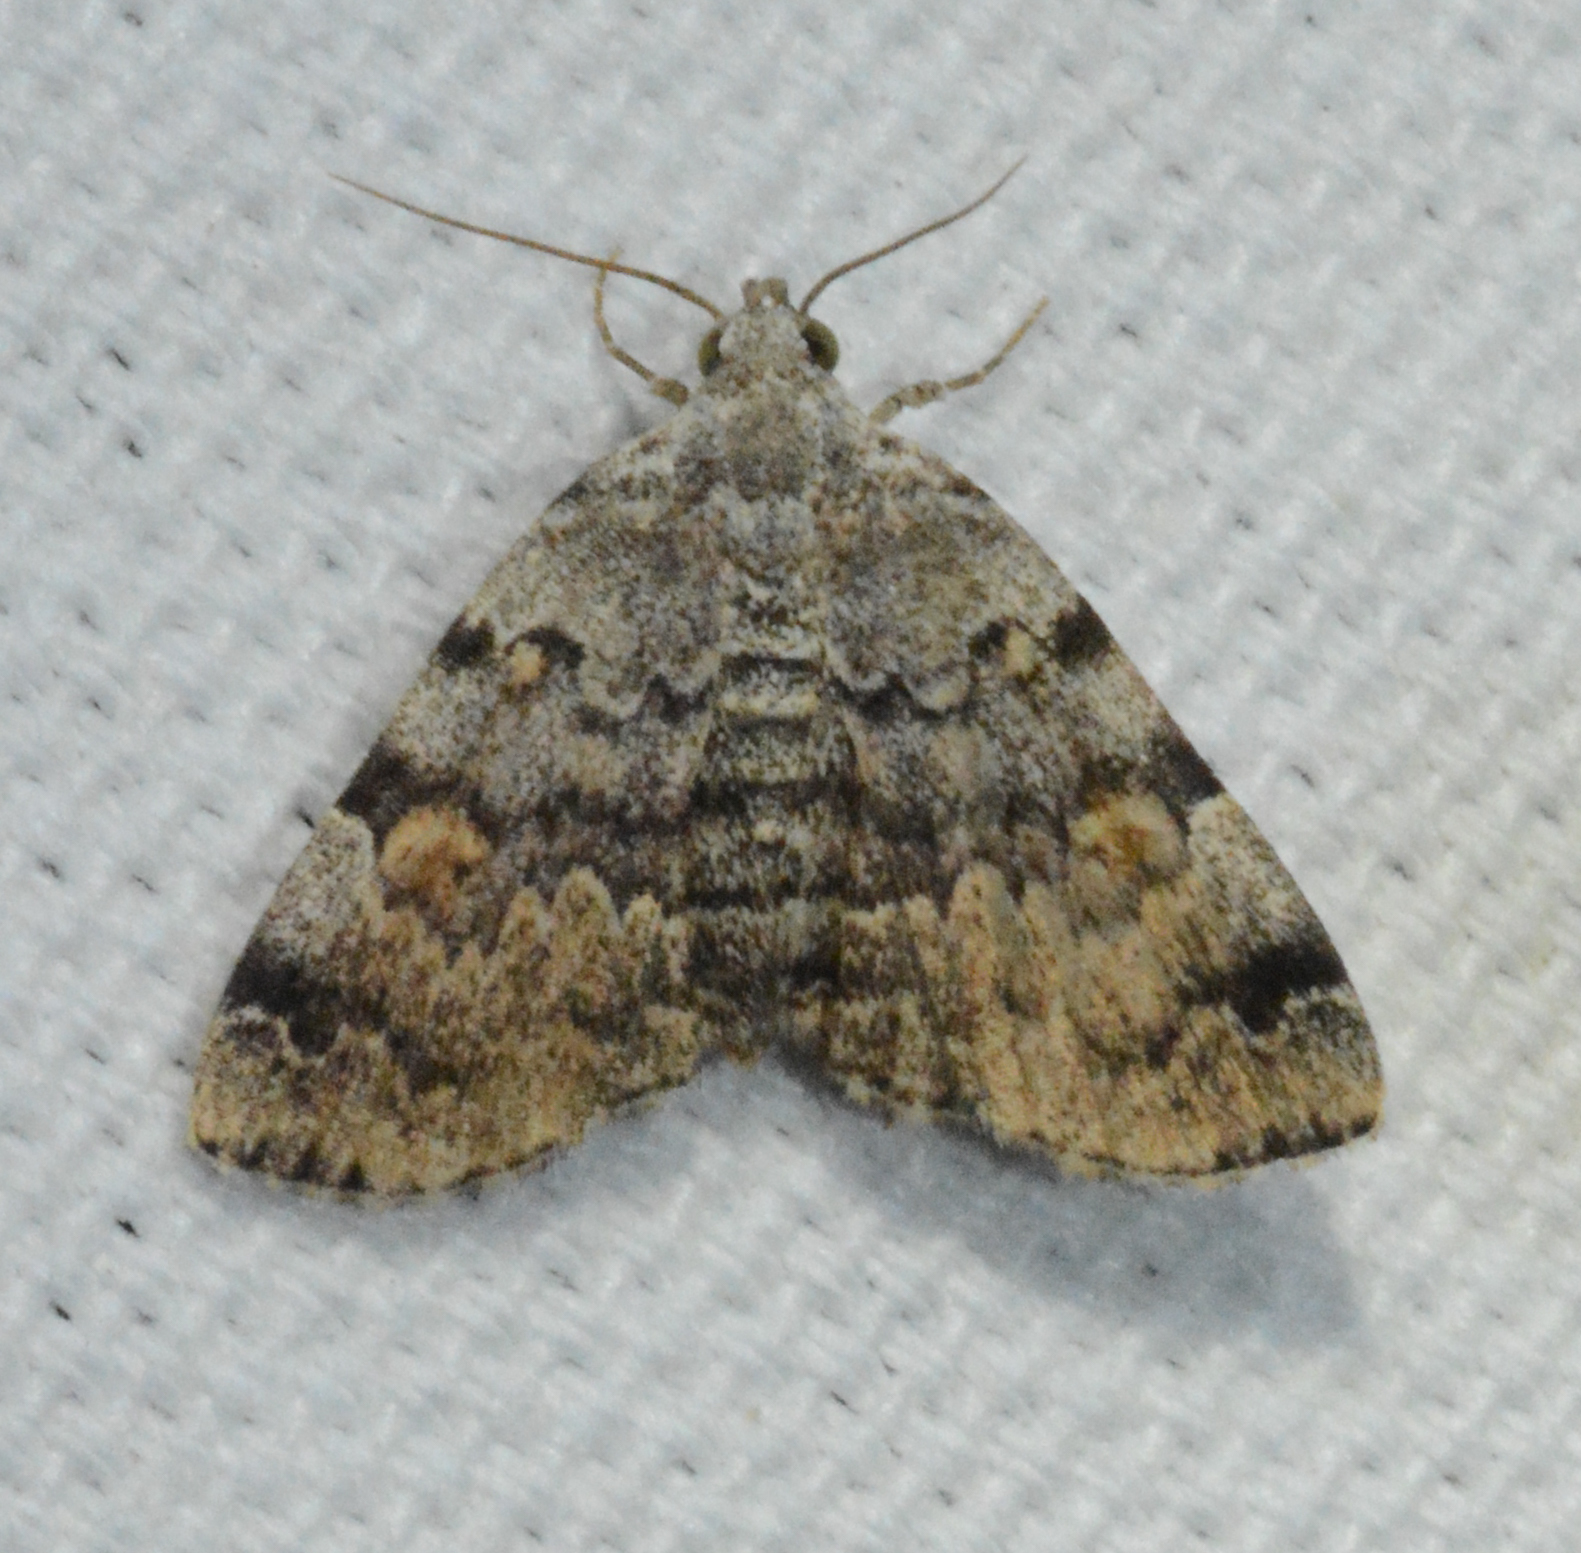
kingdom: Animalia
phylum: Arthropoda
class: Insecta
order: Lepidoptera
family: Erebidae
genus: Idia
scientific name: Idia americalis
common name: American idia moth
